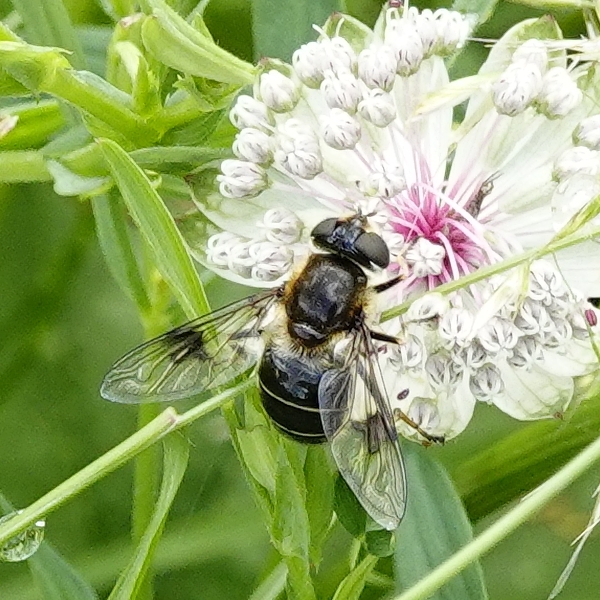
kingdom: Animalia
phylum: Arthropoda
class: Insecta
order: Diptera
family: Syrphidae
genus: Eristalis
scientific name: Eristalis rupium
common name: Hover fly
